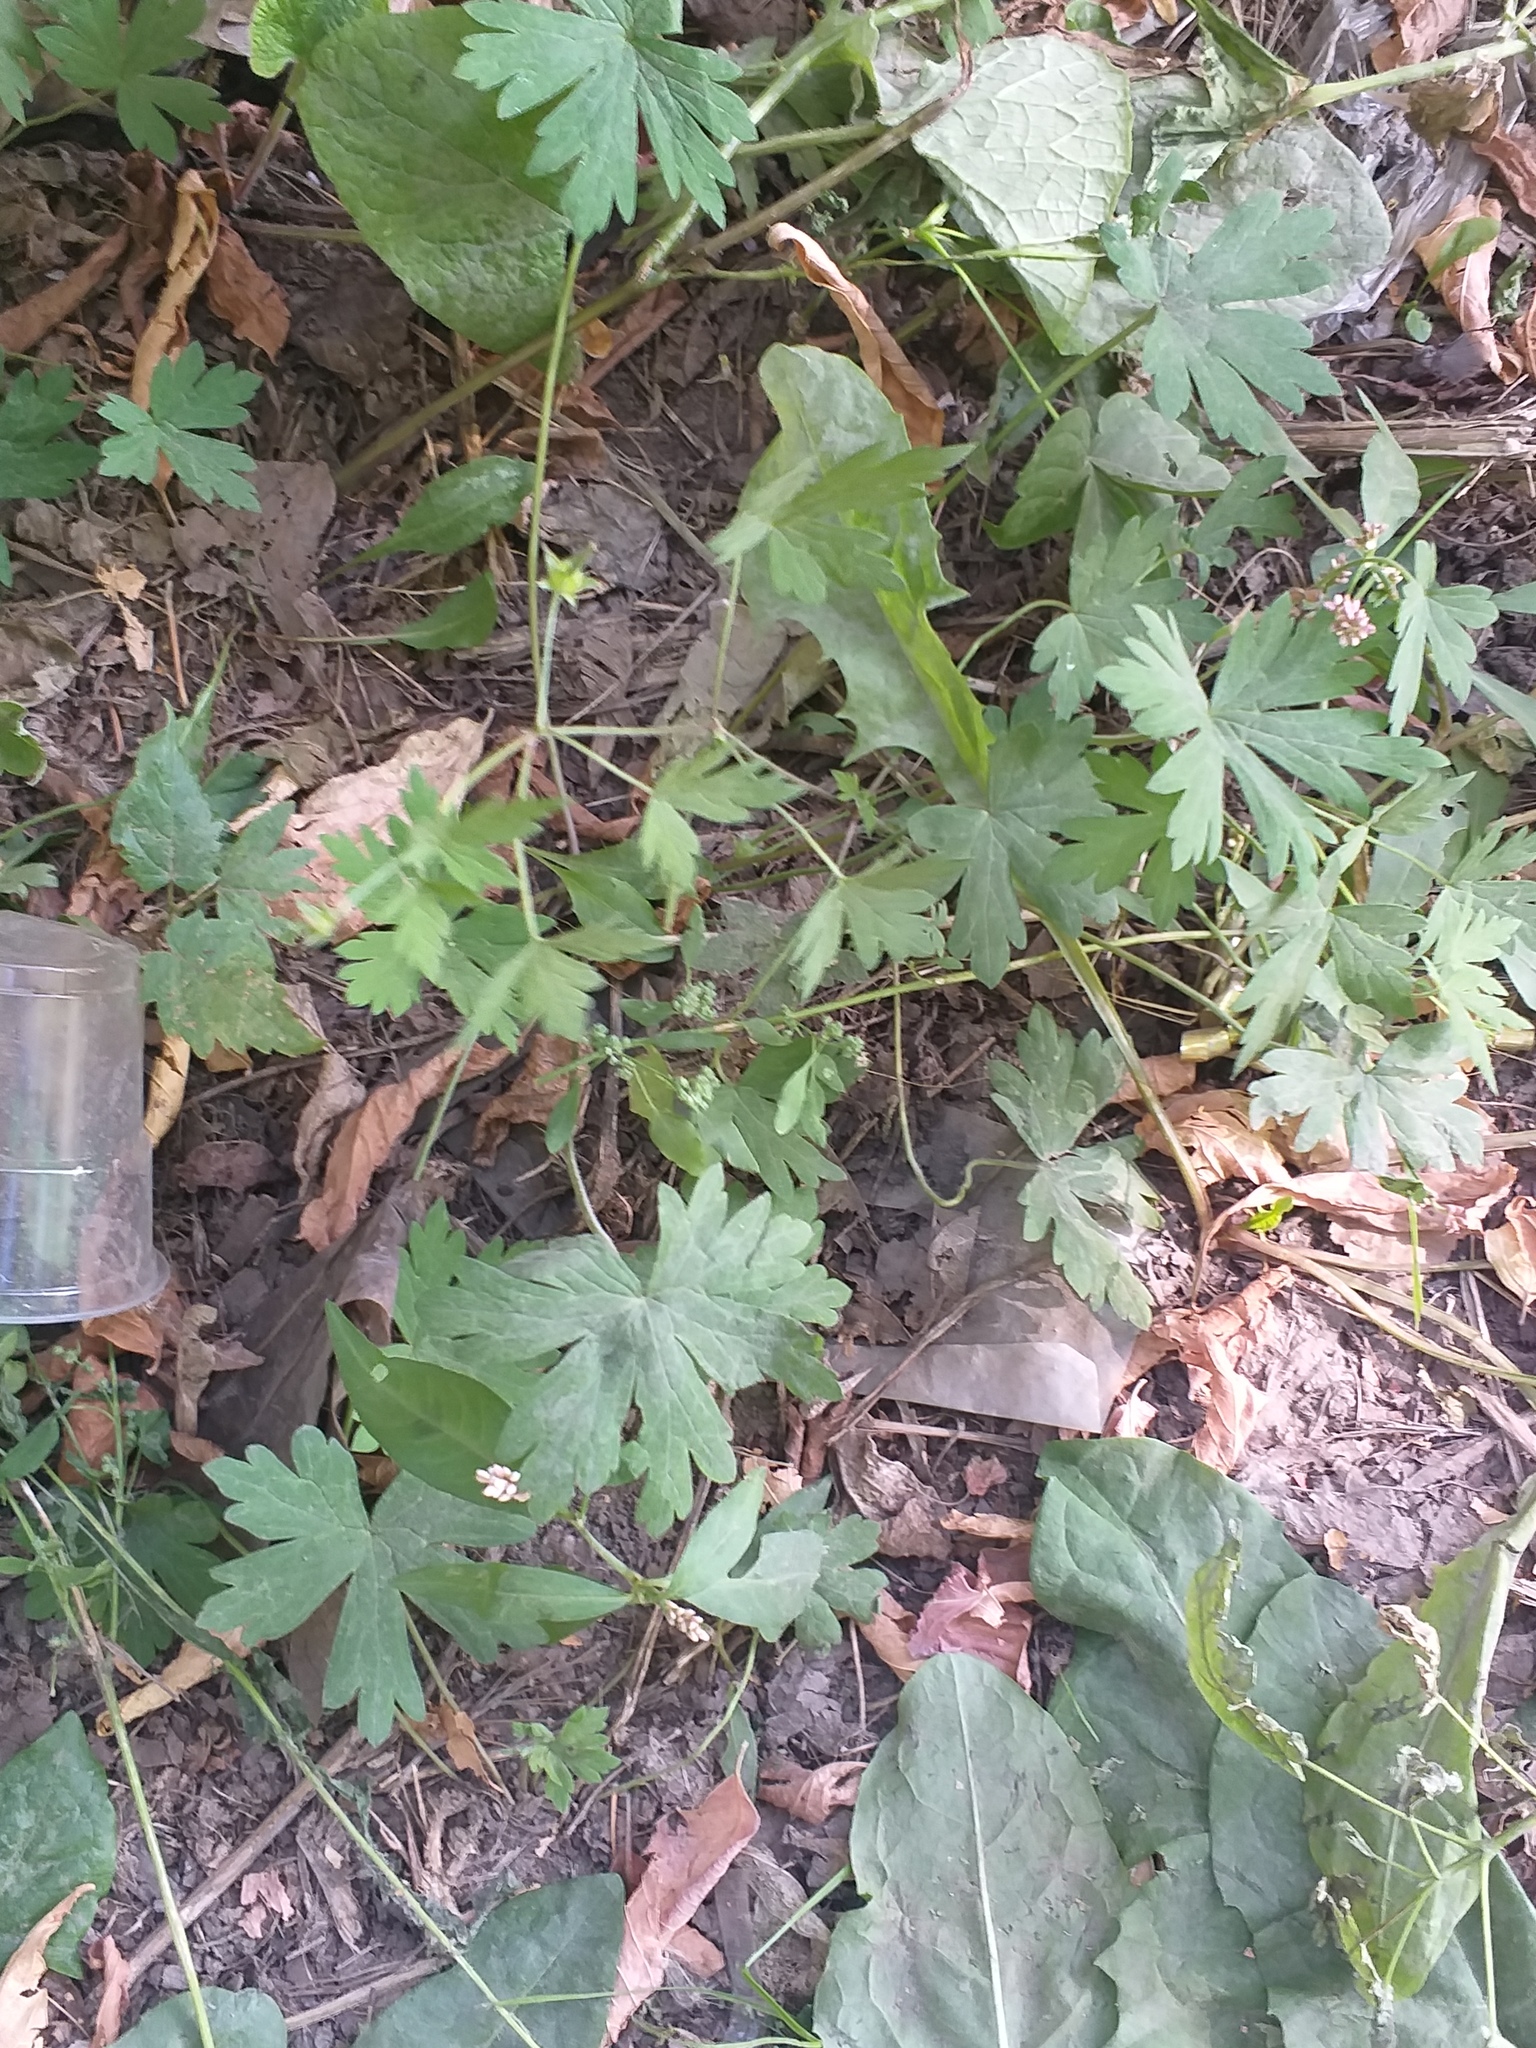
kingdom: Plantae
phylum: Tracheophyta
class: Magnoliopsida
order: Geraniales
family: Geraniaceae
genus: Geranium
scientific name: Geranium sibiricum
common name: Siberian crane's-bill
